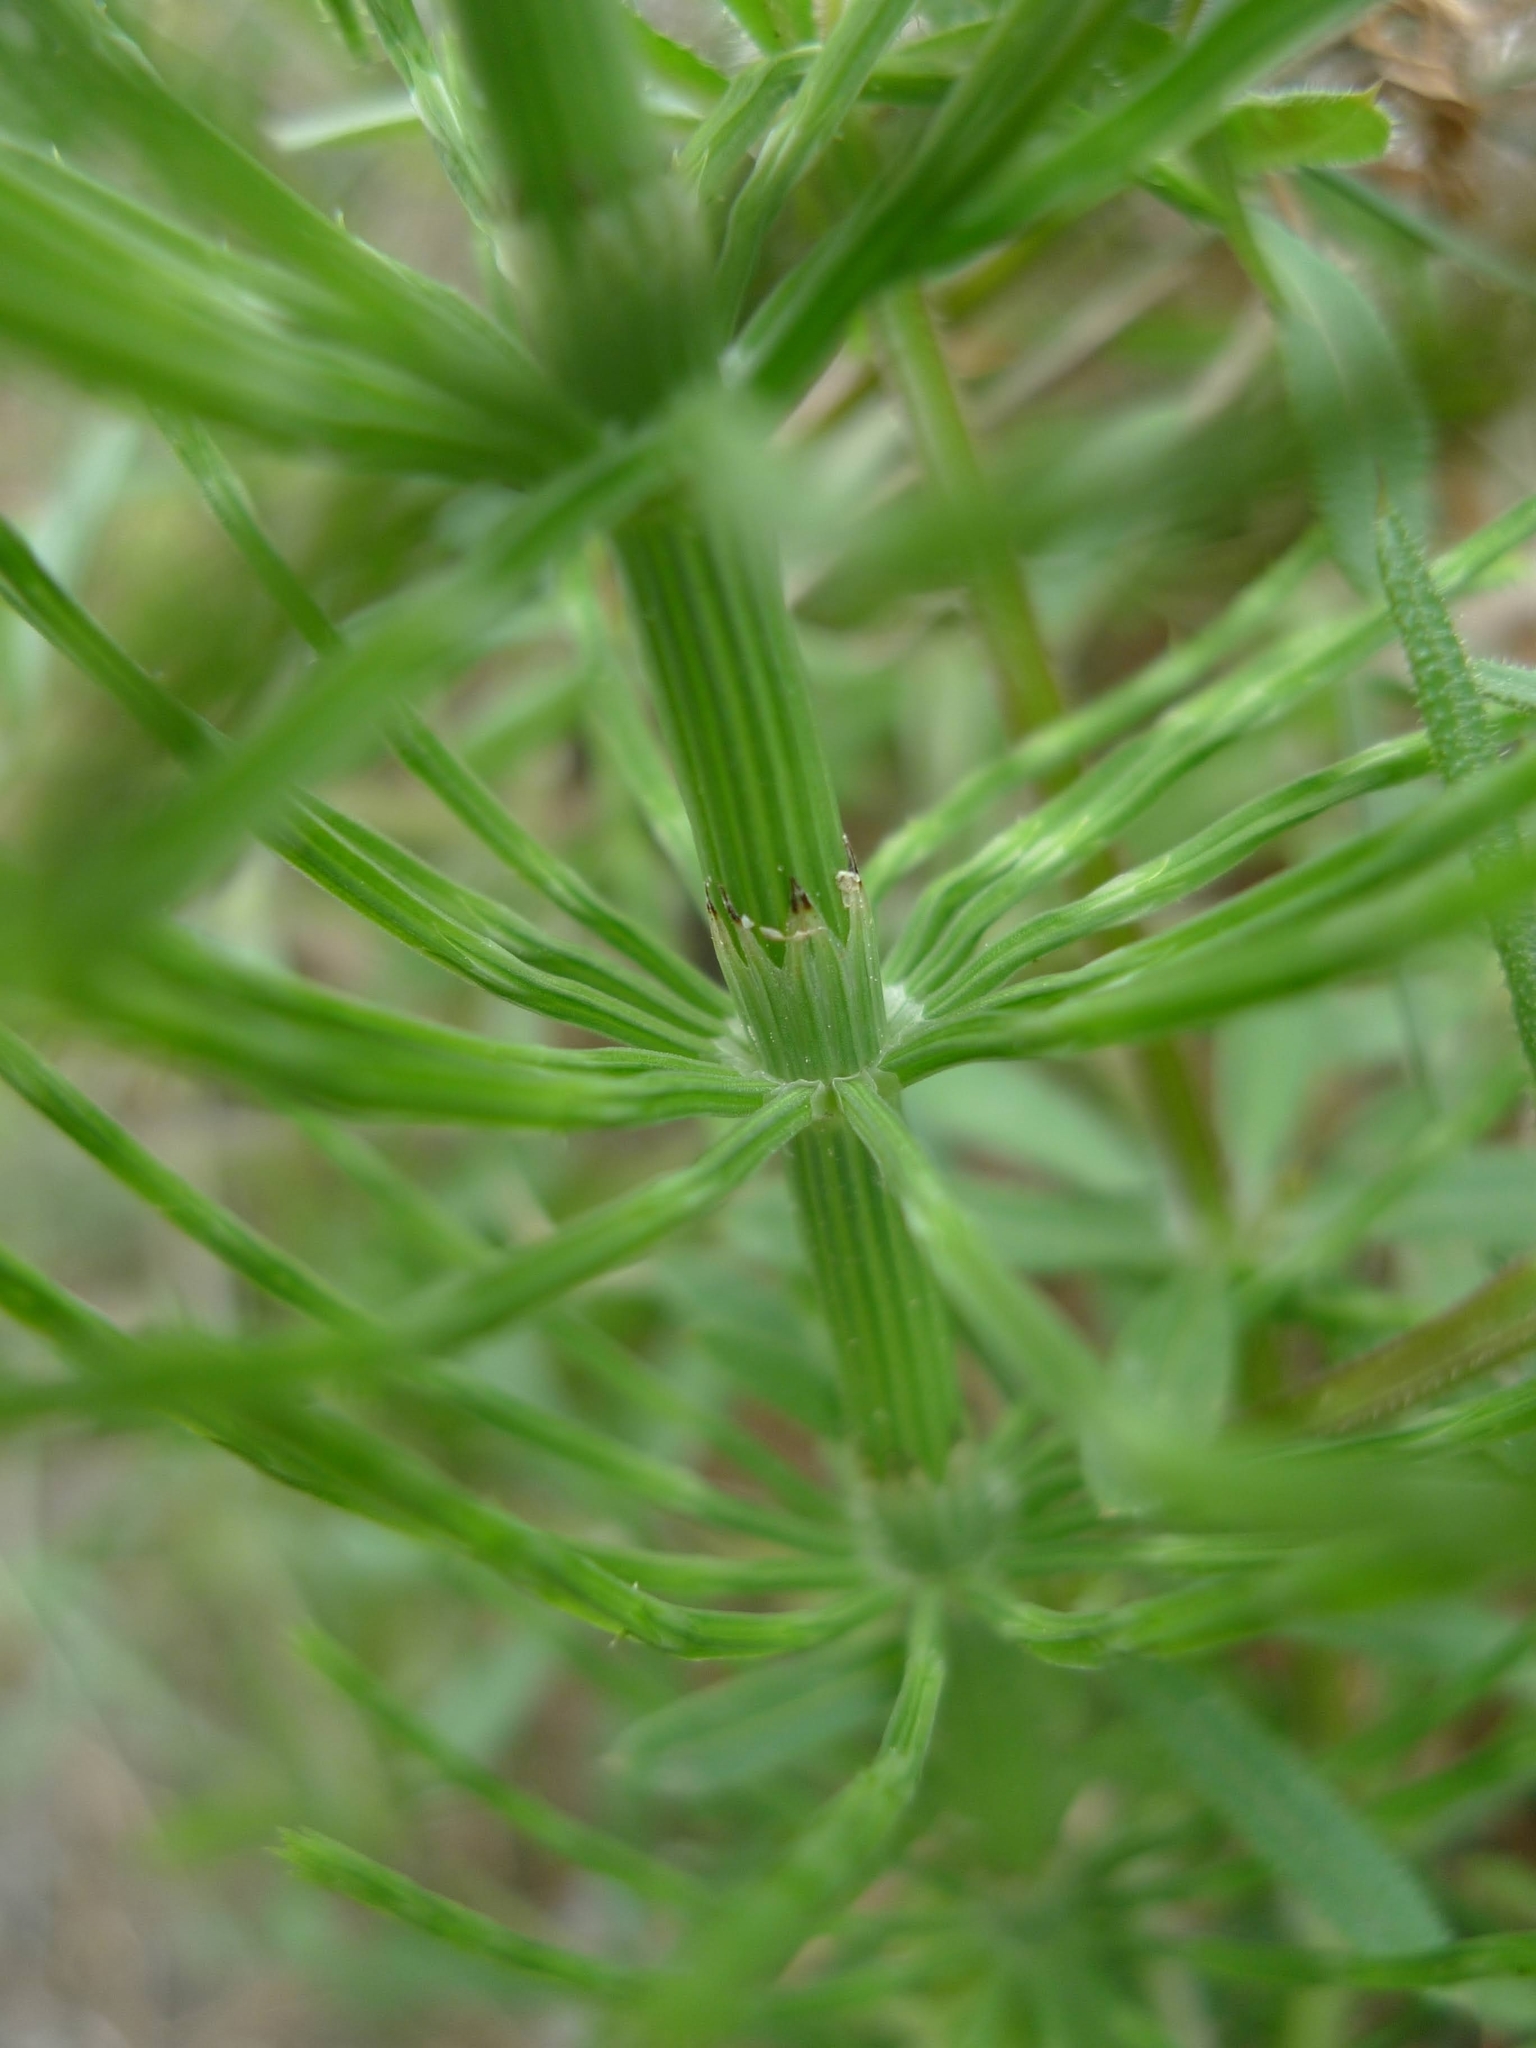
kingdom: Plantae
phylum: Tracheophyta
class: Polypodiopsida
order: Equisetales
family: Equisetaceae
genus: Equisetum
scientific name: Equisetum arvense
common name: Field horsetail
